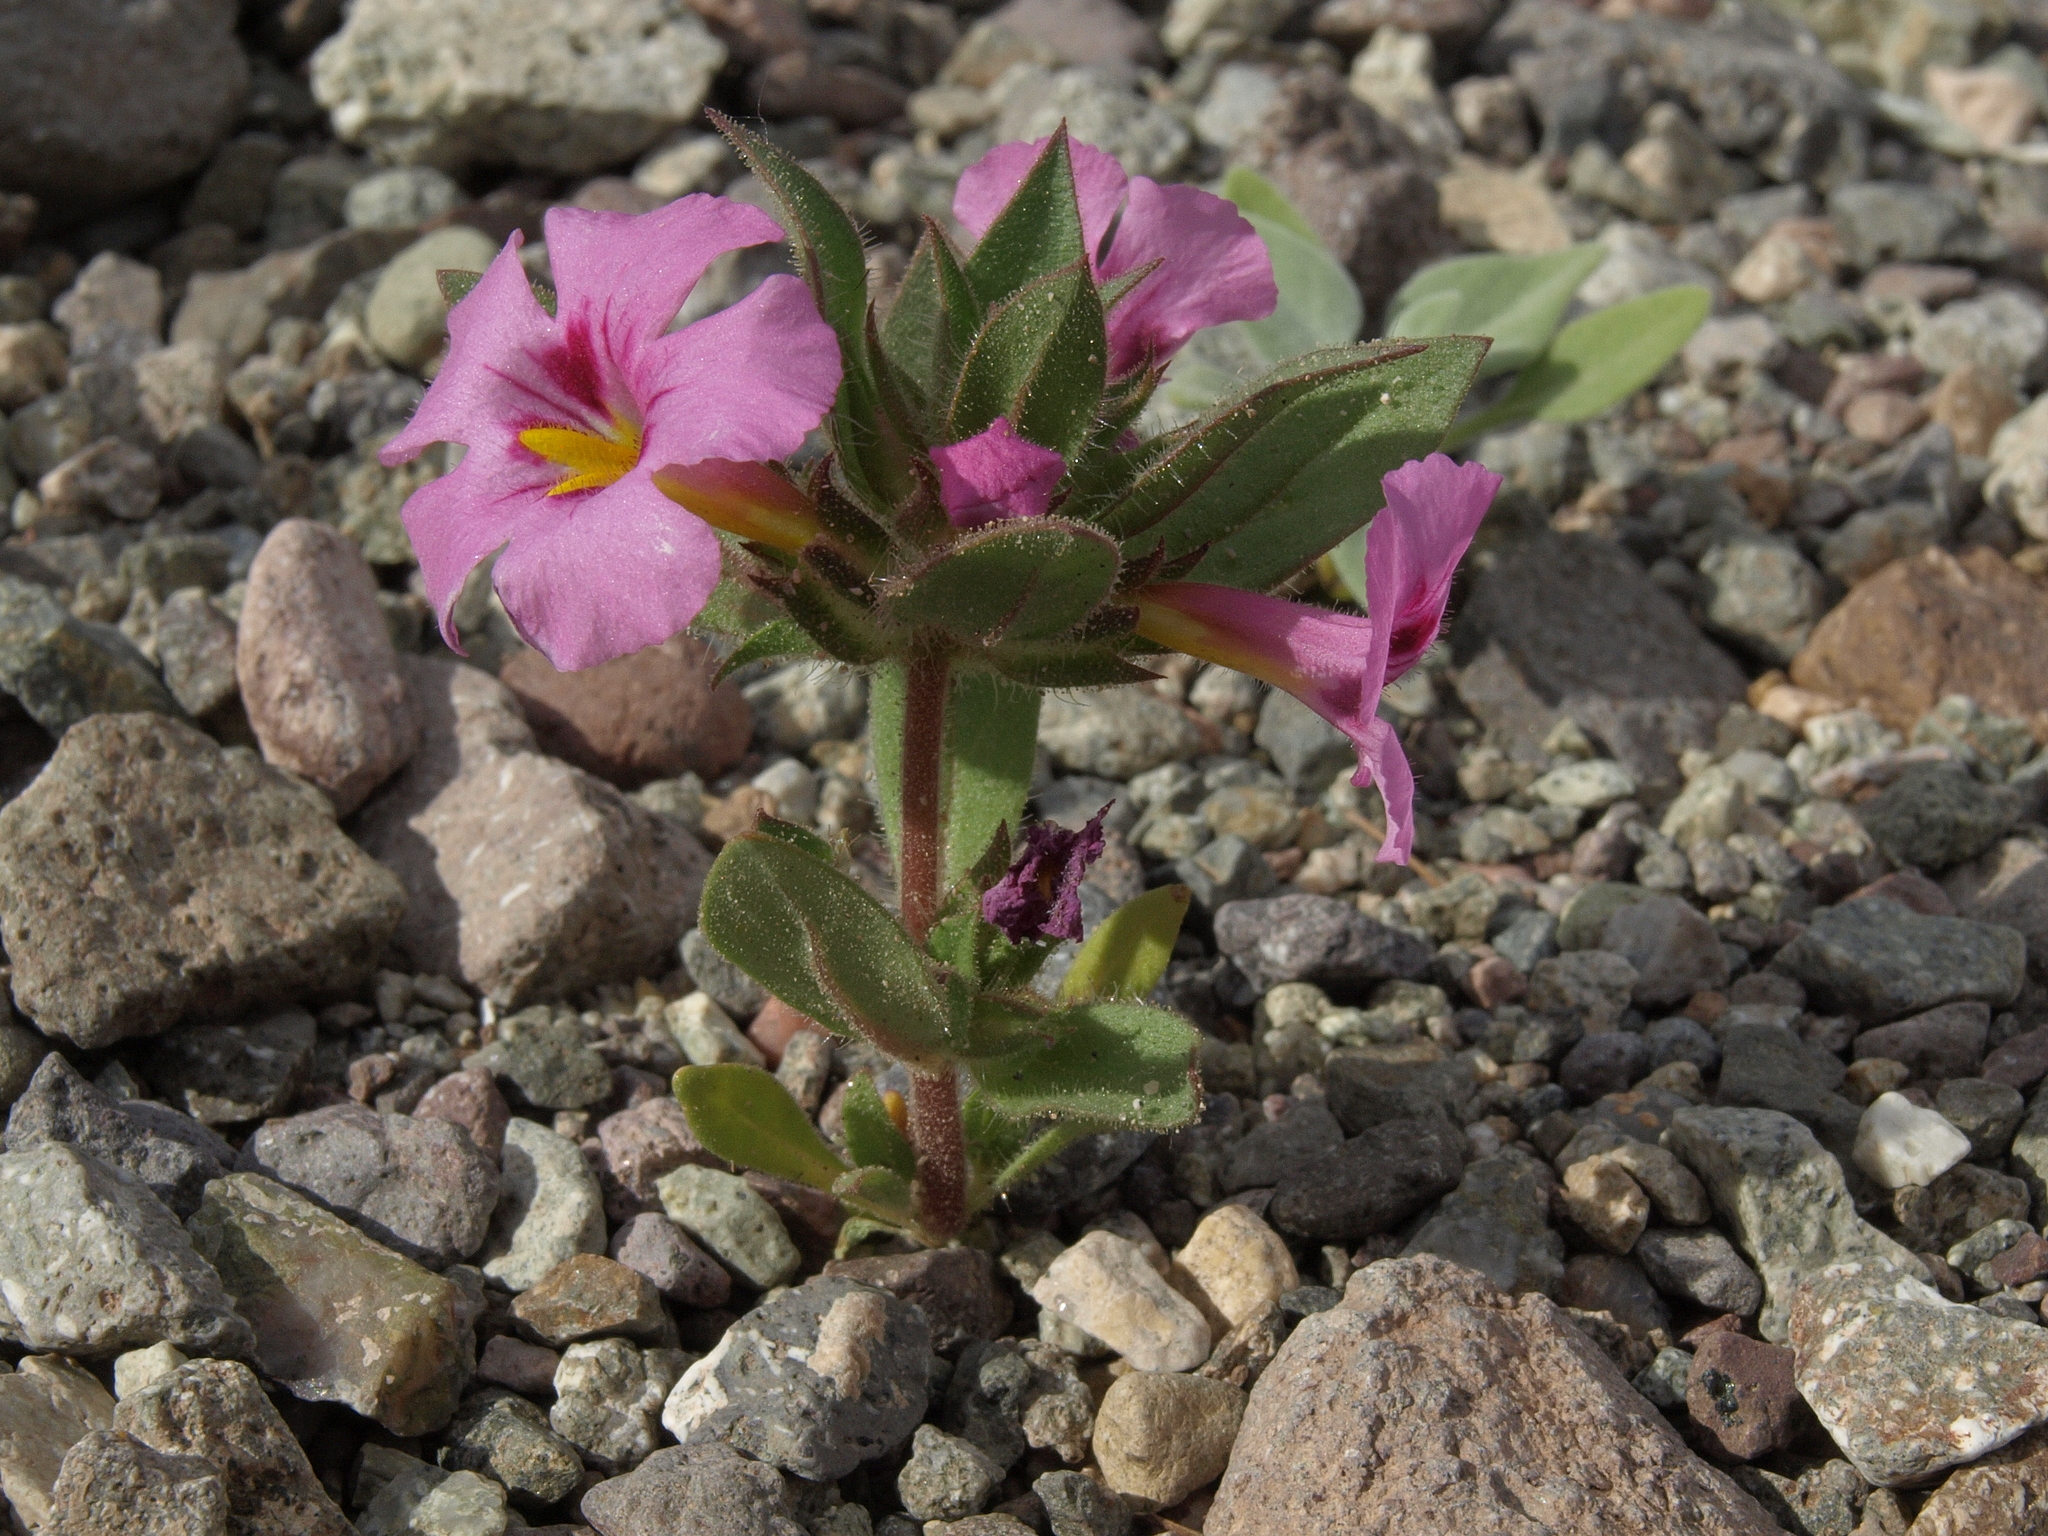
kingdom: Plantae
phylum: Tracheophyta
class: Magnoliopsida
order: Lamiales
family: Phrymaceae
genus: Diplacus
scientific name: Diplacus bigelovii
